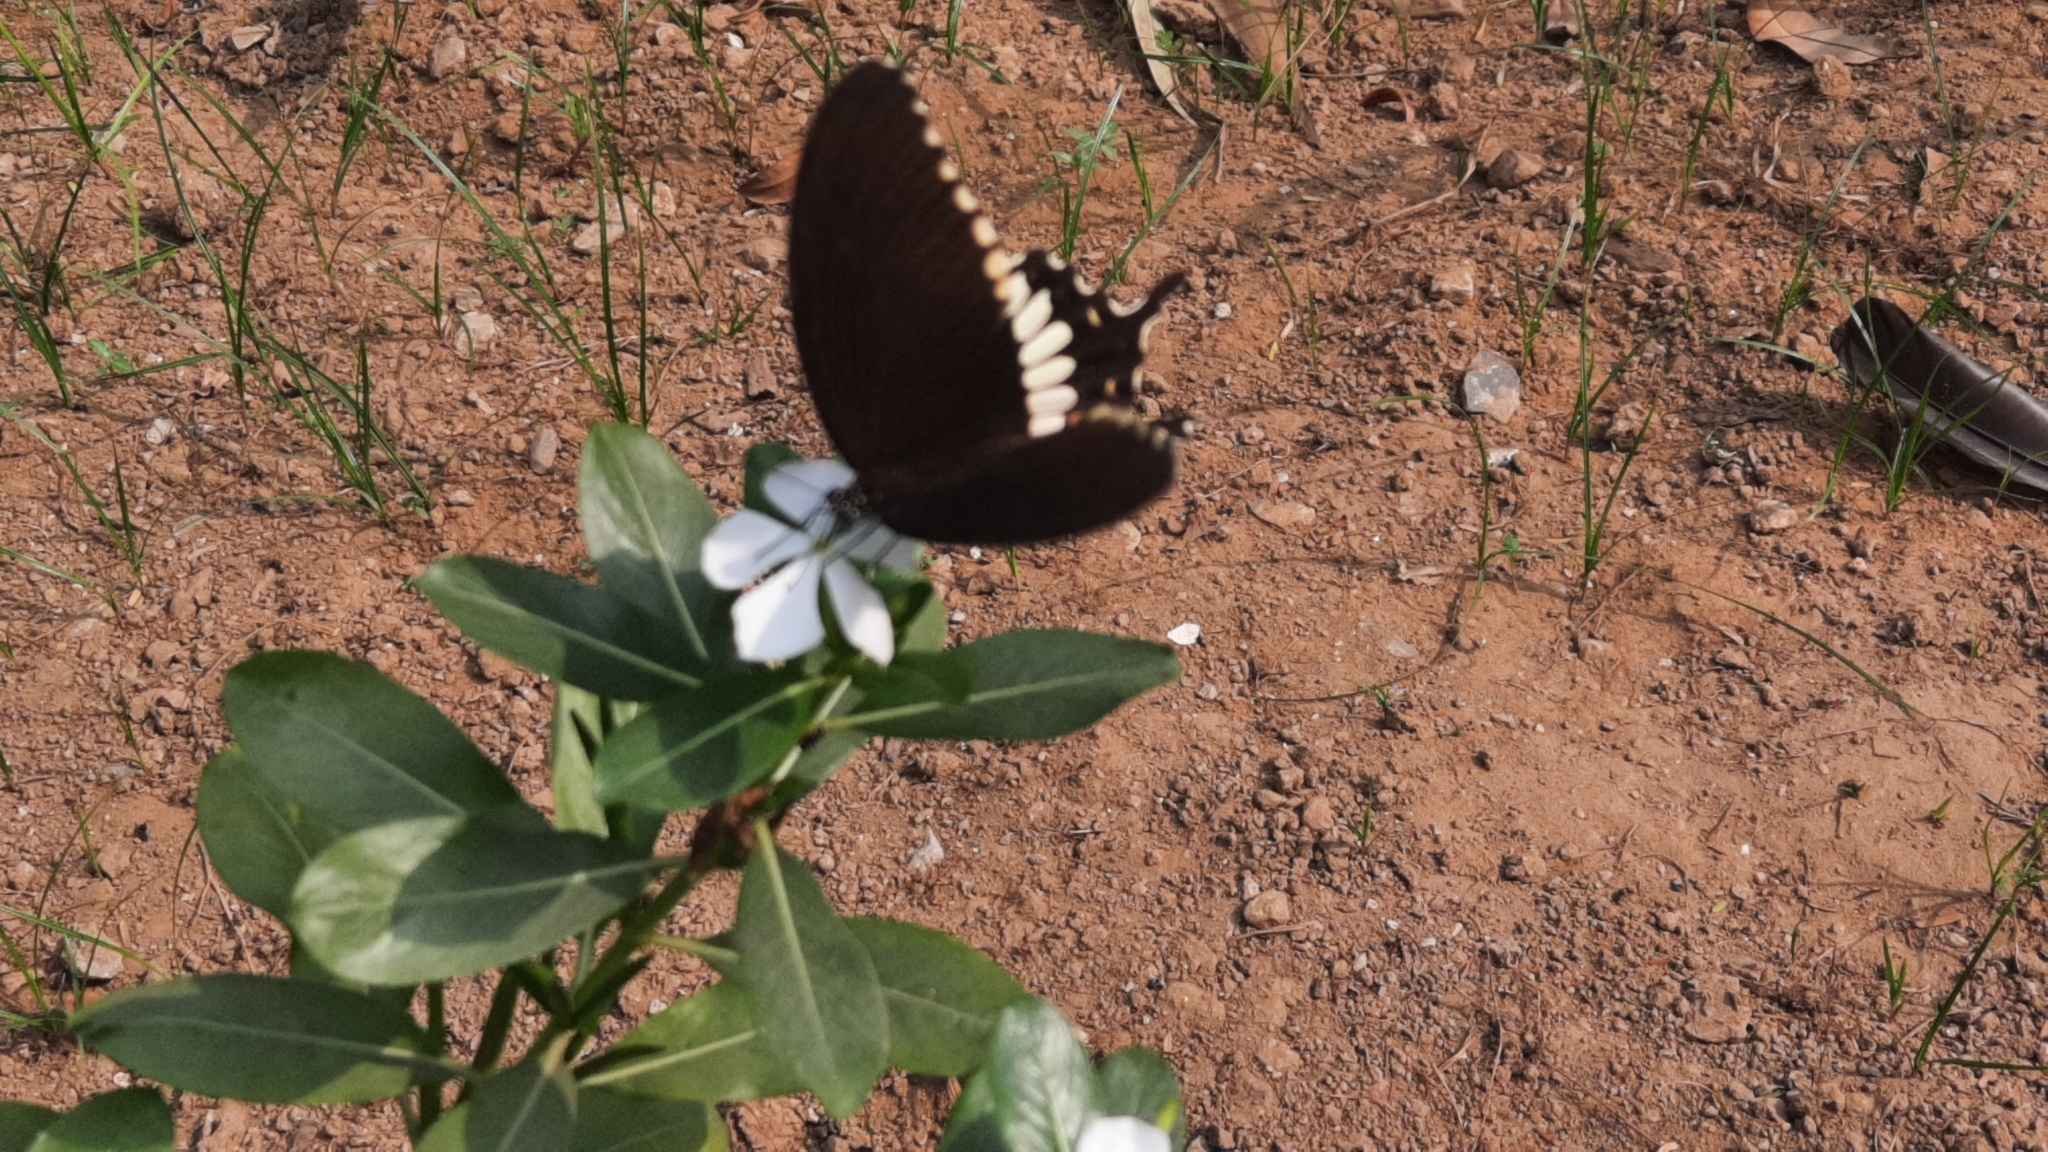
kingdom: Animalia
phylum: Arthropoda
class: Insecta
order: Lepidoptera
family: Papilionidae
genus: Papilio
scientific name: Papilio polytes
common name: Common mormon
